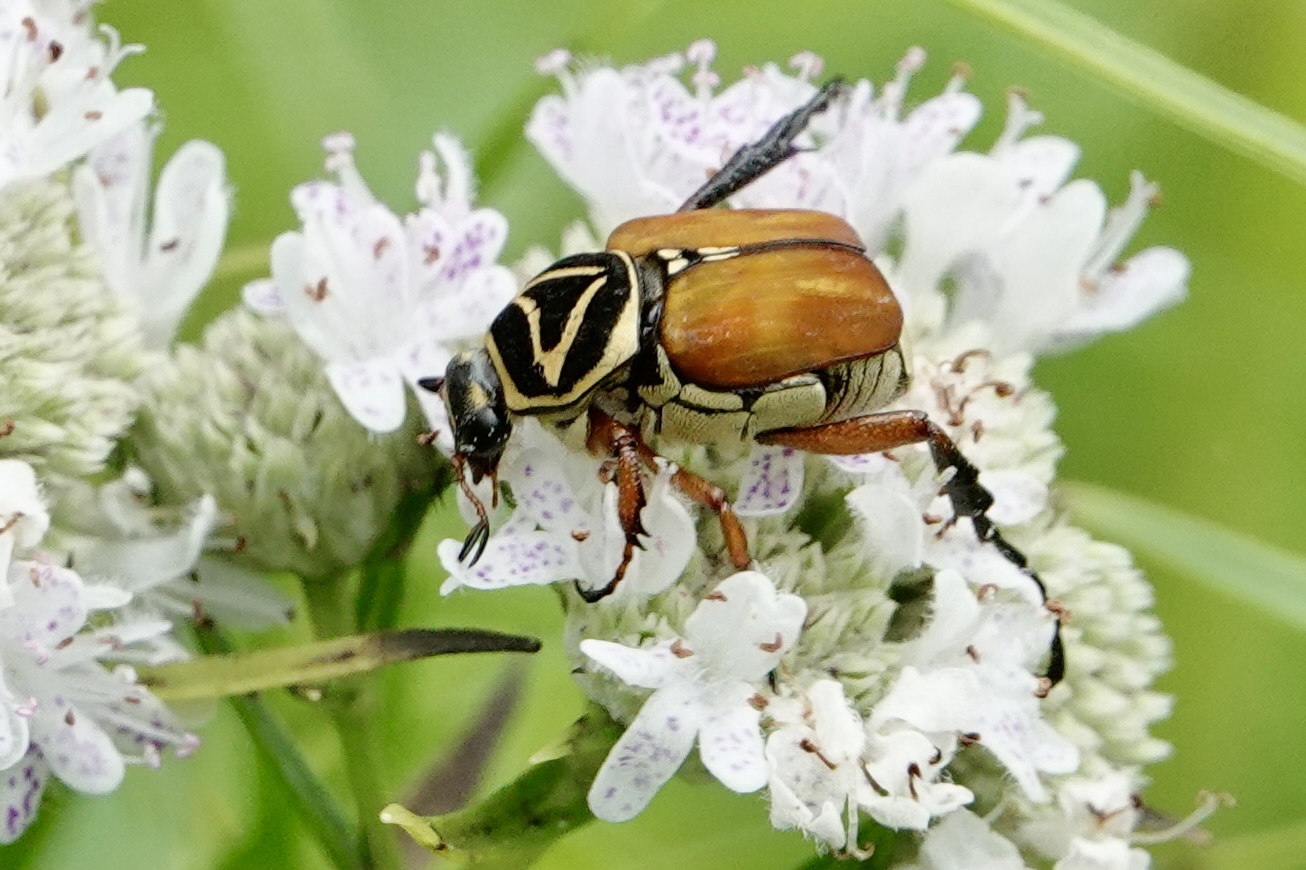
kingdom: Animalia
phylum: Arthropoda
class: Insecta
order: Coleoptera
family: Scarabaeidae
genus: Trigonopeltastes
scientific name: Trigonopeltastes delta
